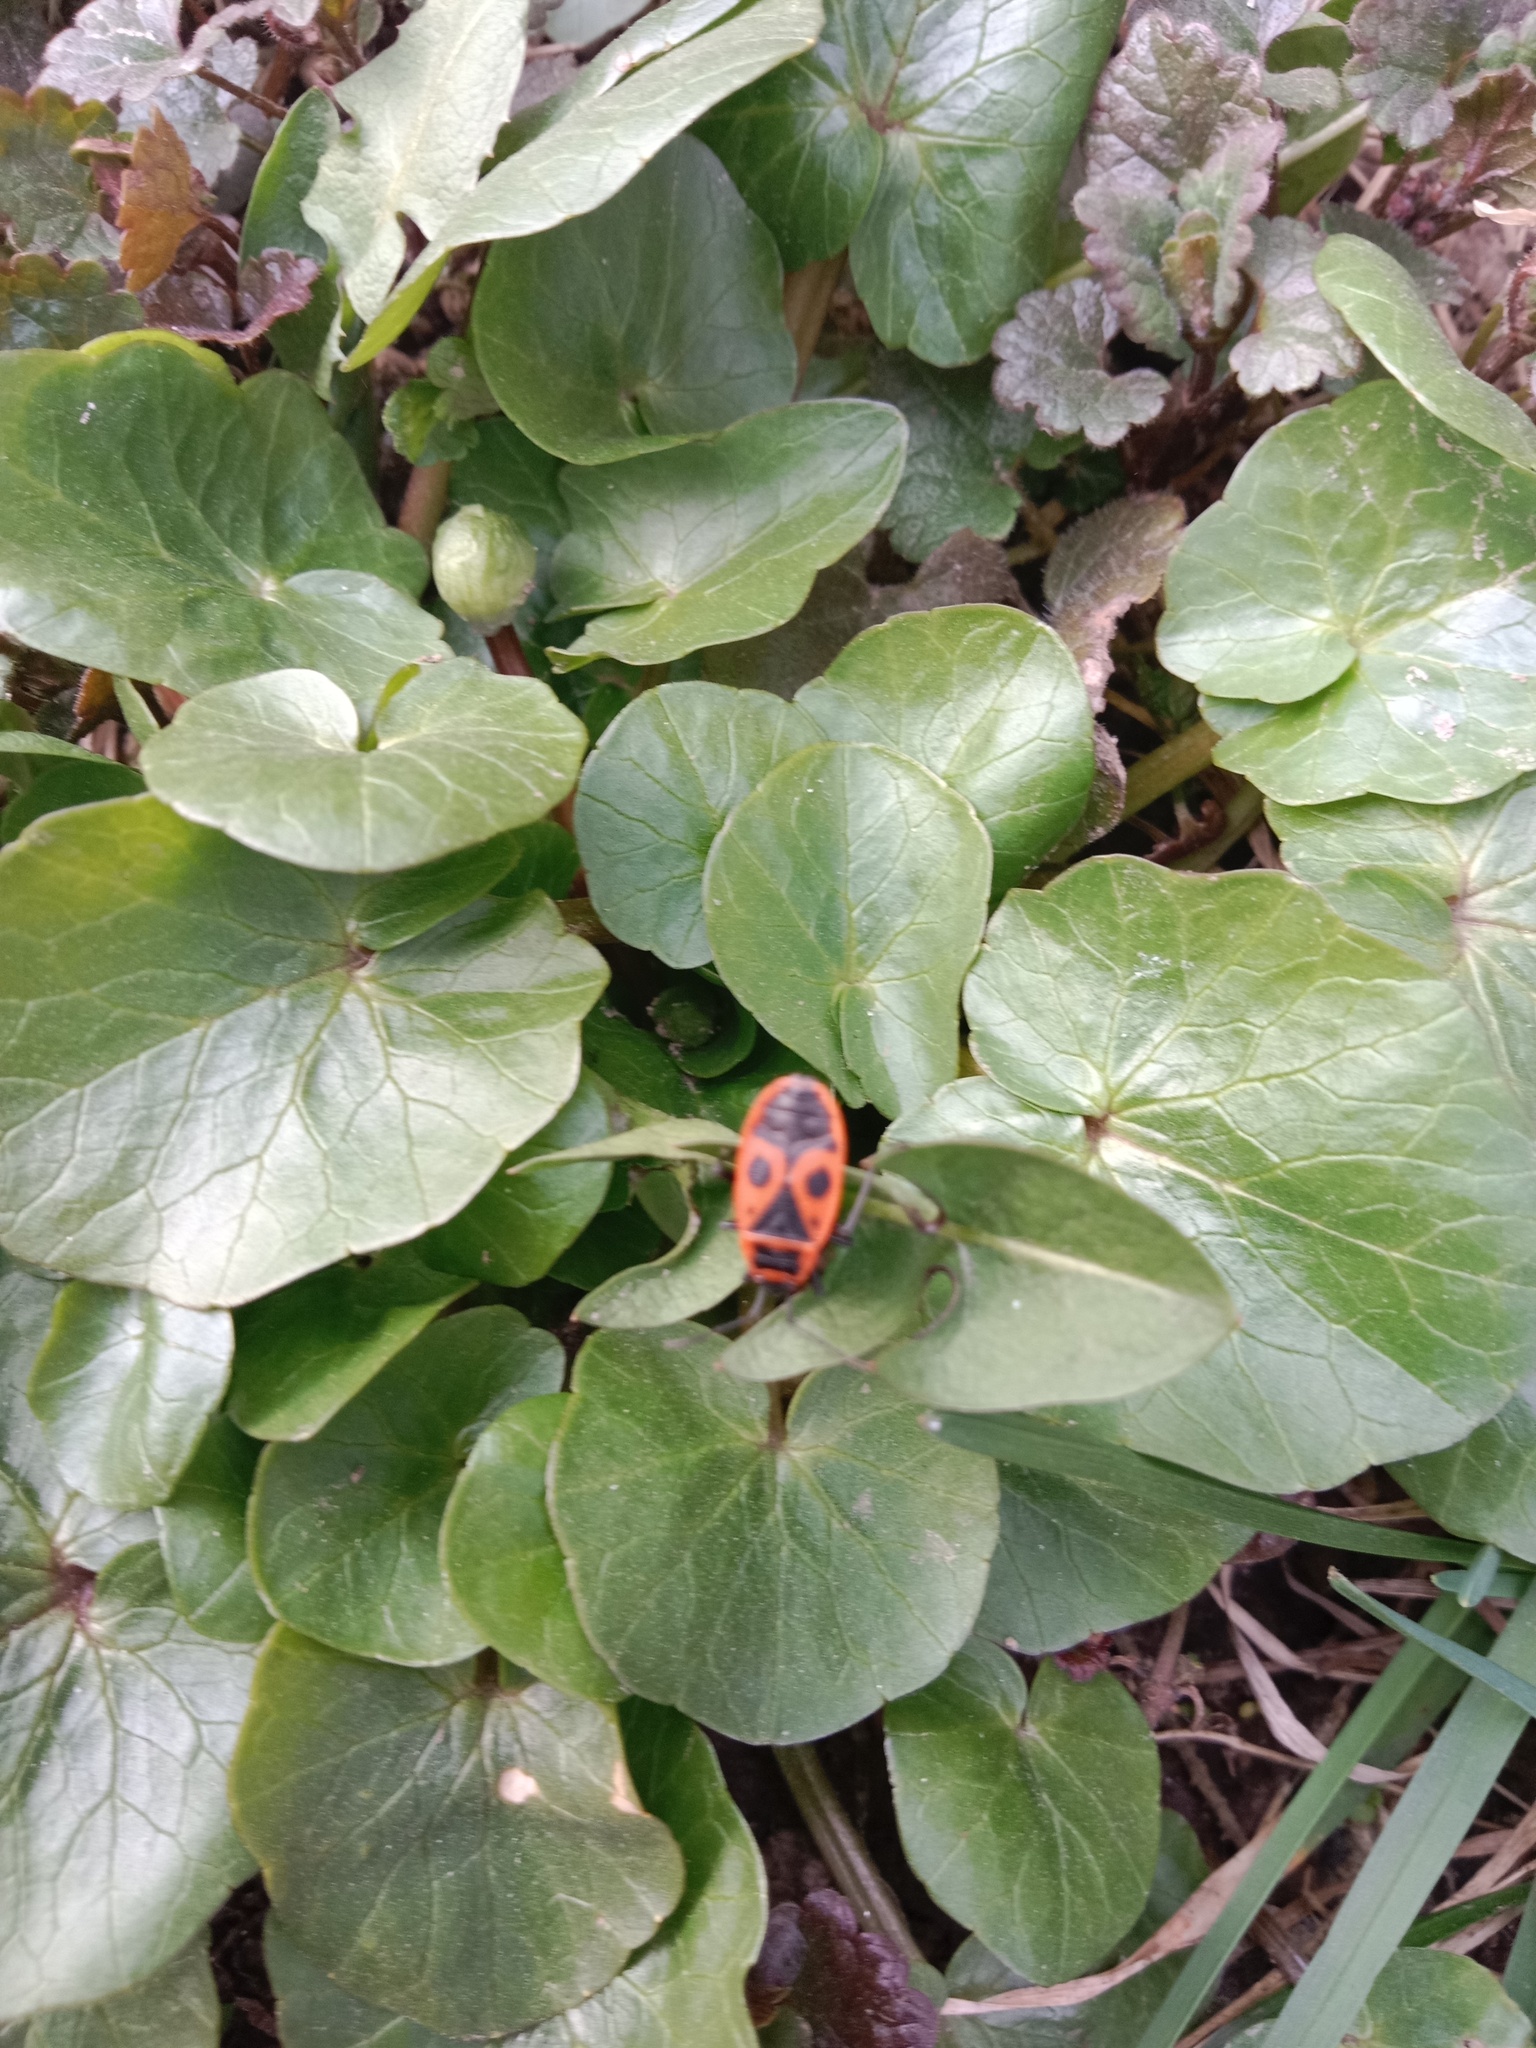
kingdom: Plantae
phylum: Tracheophyta
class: Magnoliopsida
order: Ranunculales
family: Ranunculaceae
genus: Ficaria
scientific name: Ficaria verna
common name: Lesser celandine
